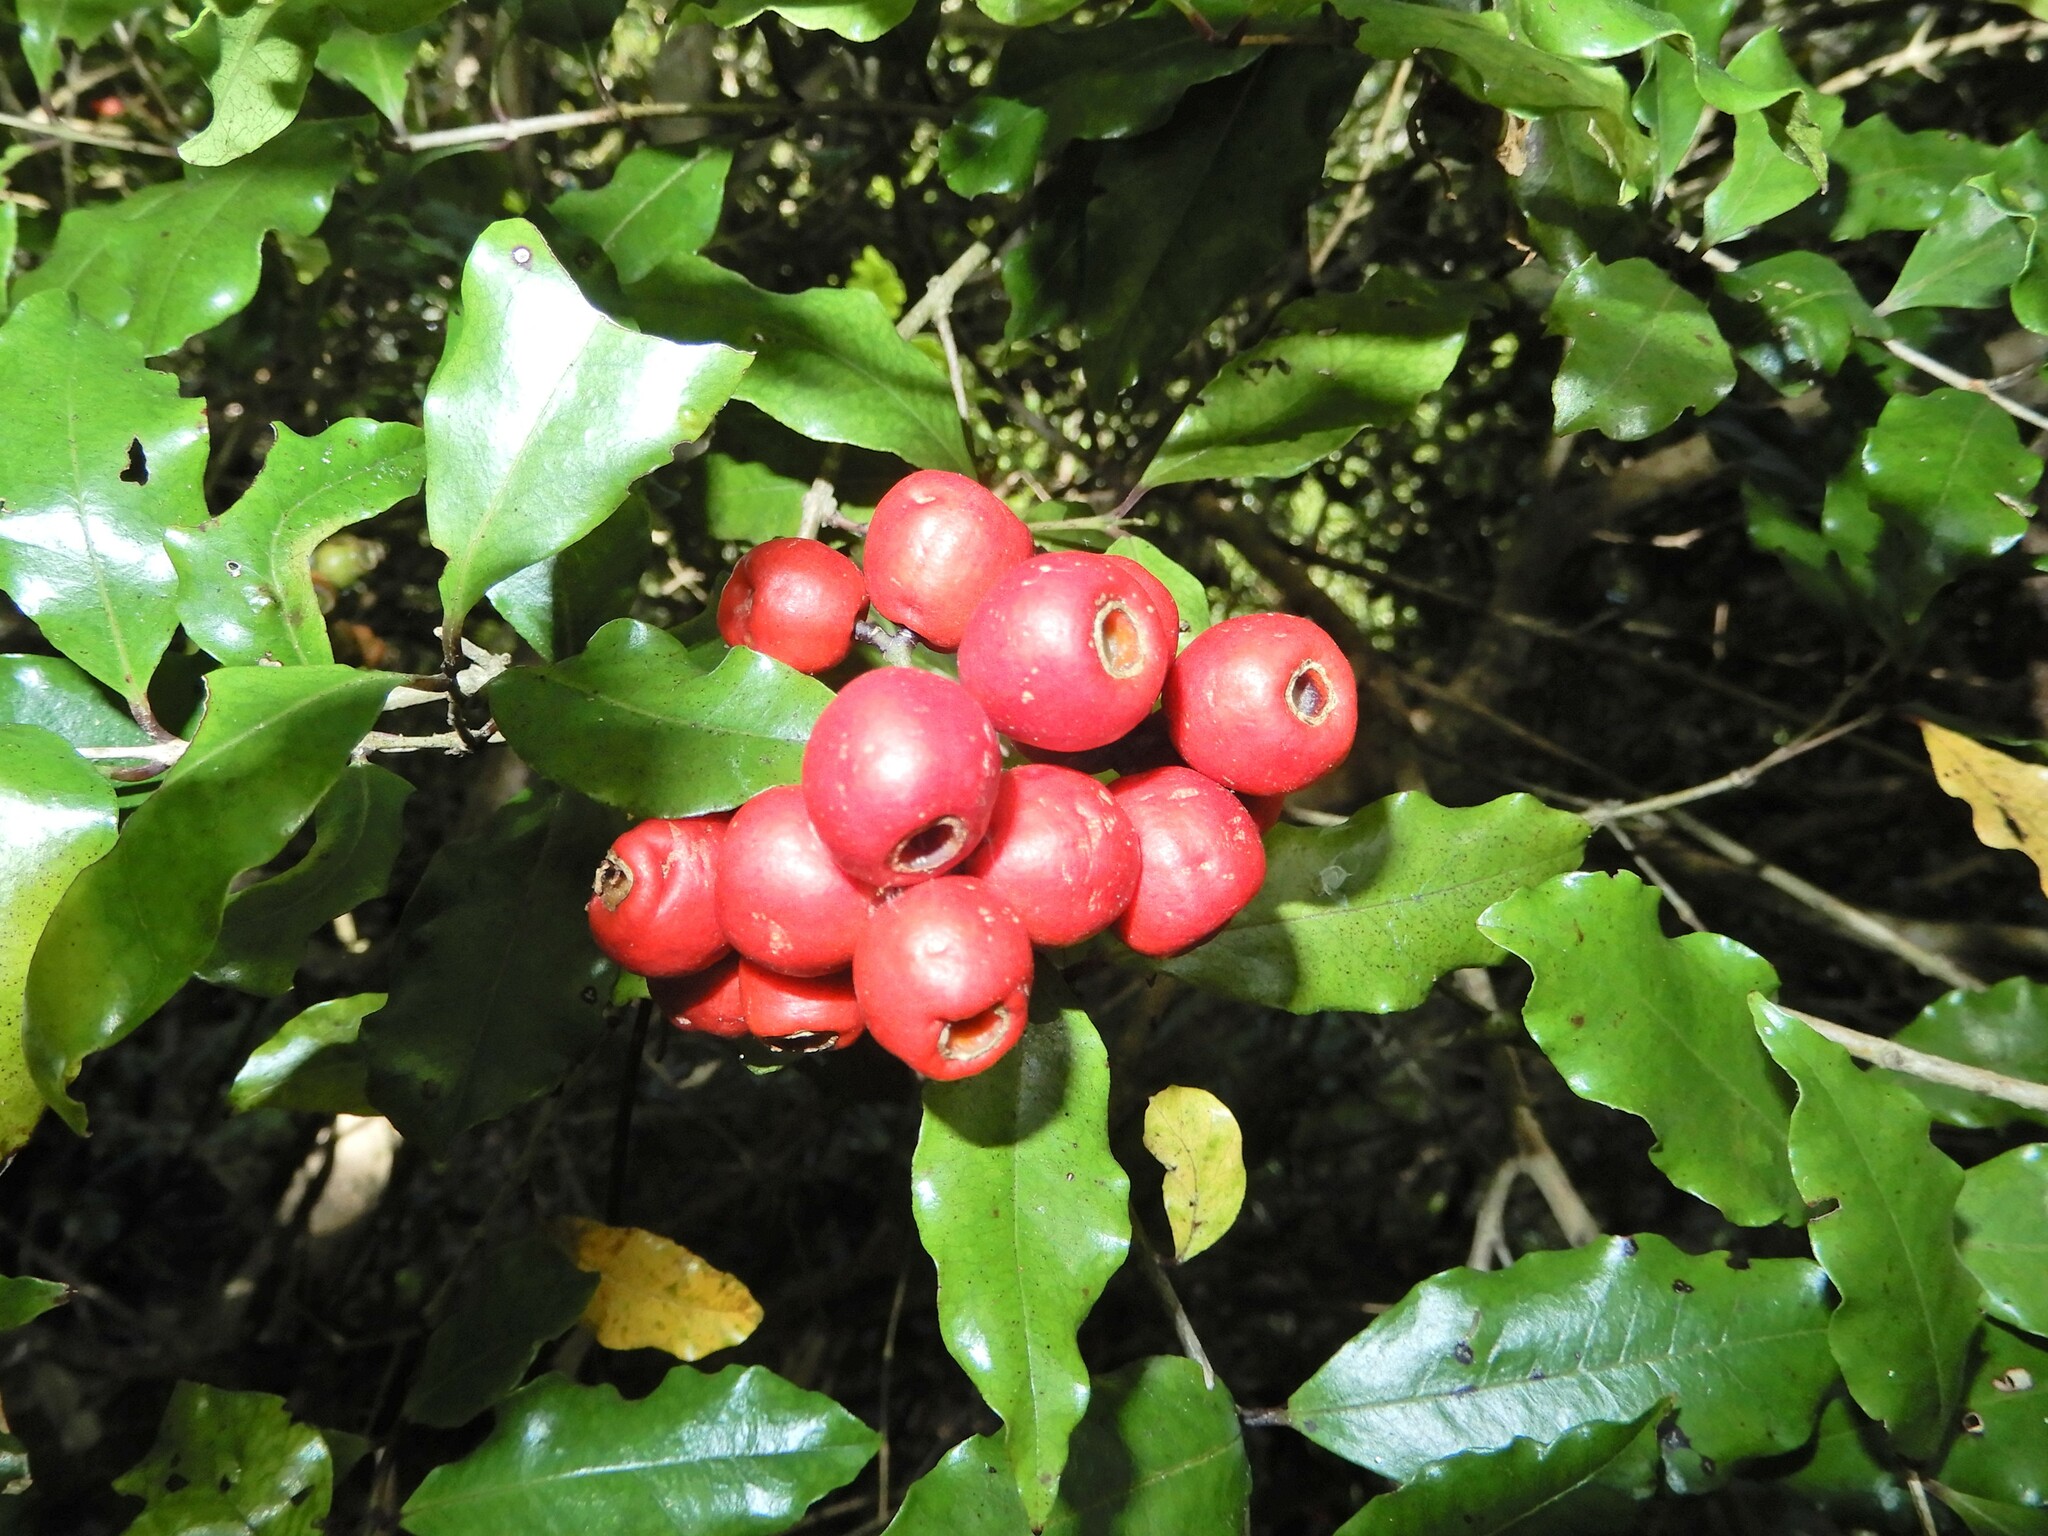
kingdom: Plantae
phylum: Tracheophyta
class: Magnoliopsida
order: Myrtales
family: Myrtaceae
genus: Syzygium
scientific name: Syzygium maire
